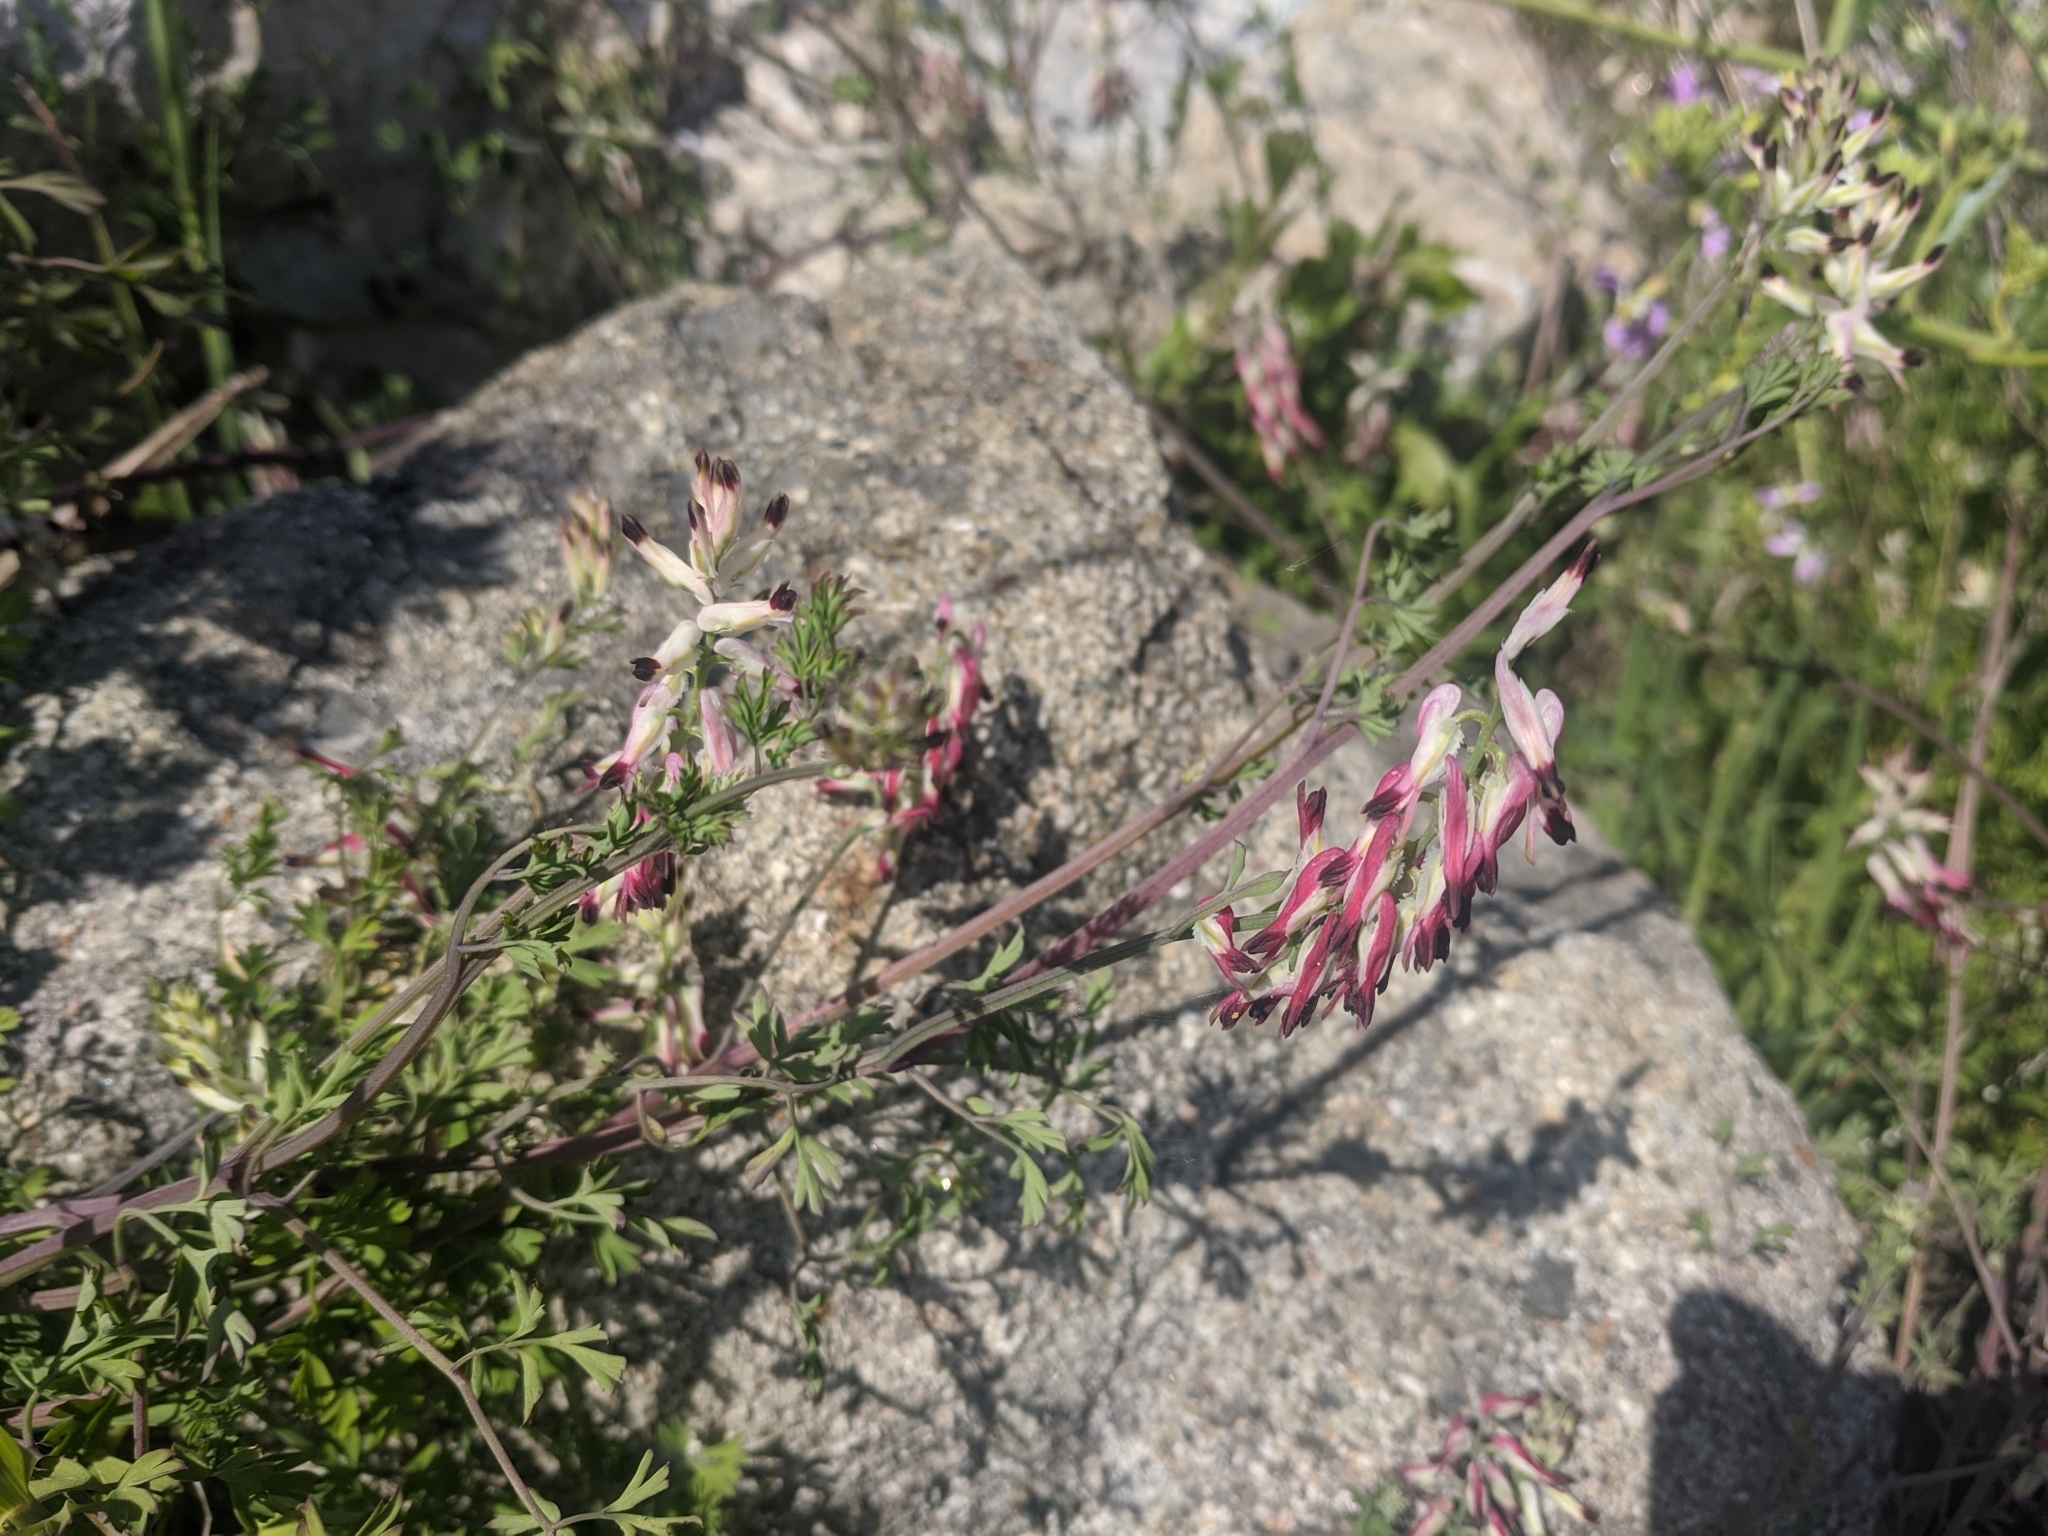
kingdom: Plantae
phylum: Tracheophyta
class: Magnoliopsida
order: Ranunculales
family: Papaveraceae
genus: Fumaria
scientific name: Fumaria capreolata
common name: White ramping-fumitory
